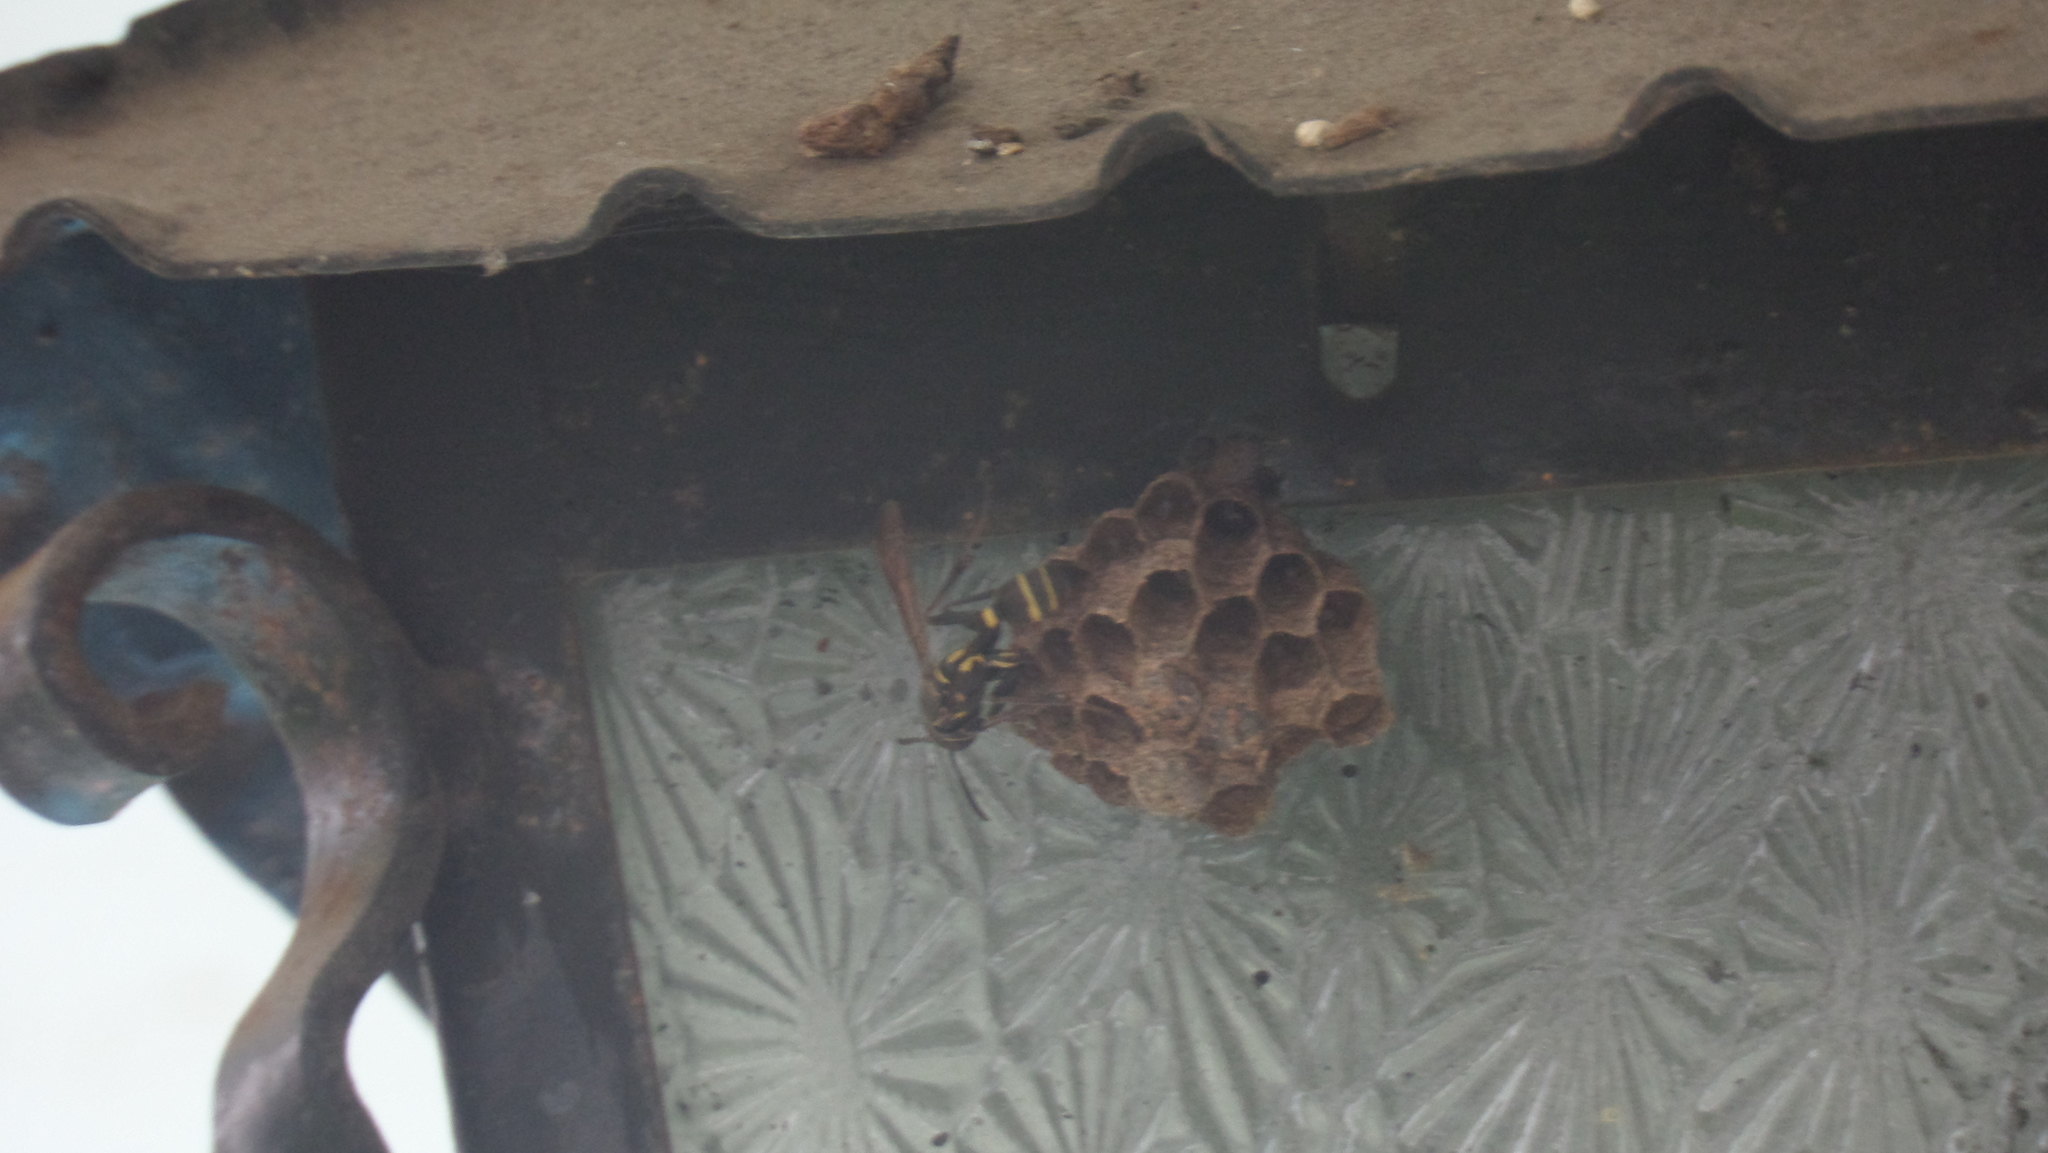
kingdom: Animalia
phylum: Arthropoda
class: Insecta
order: Hymenoptera
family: Vespidae
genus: Mischocyttarus
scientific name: Mischocyttarus mexicanus
